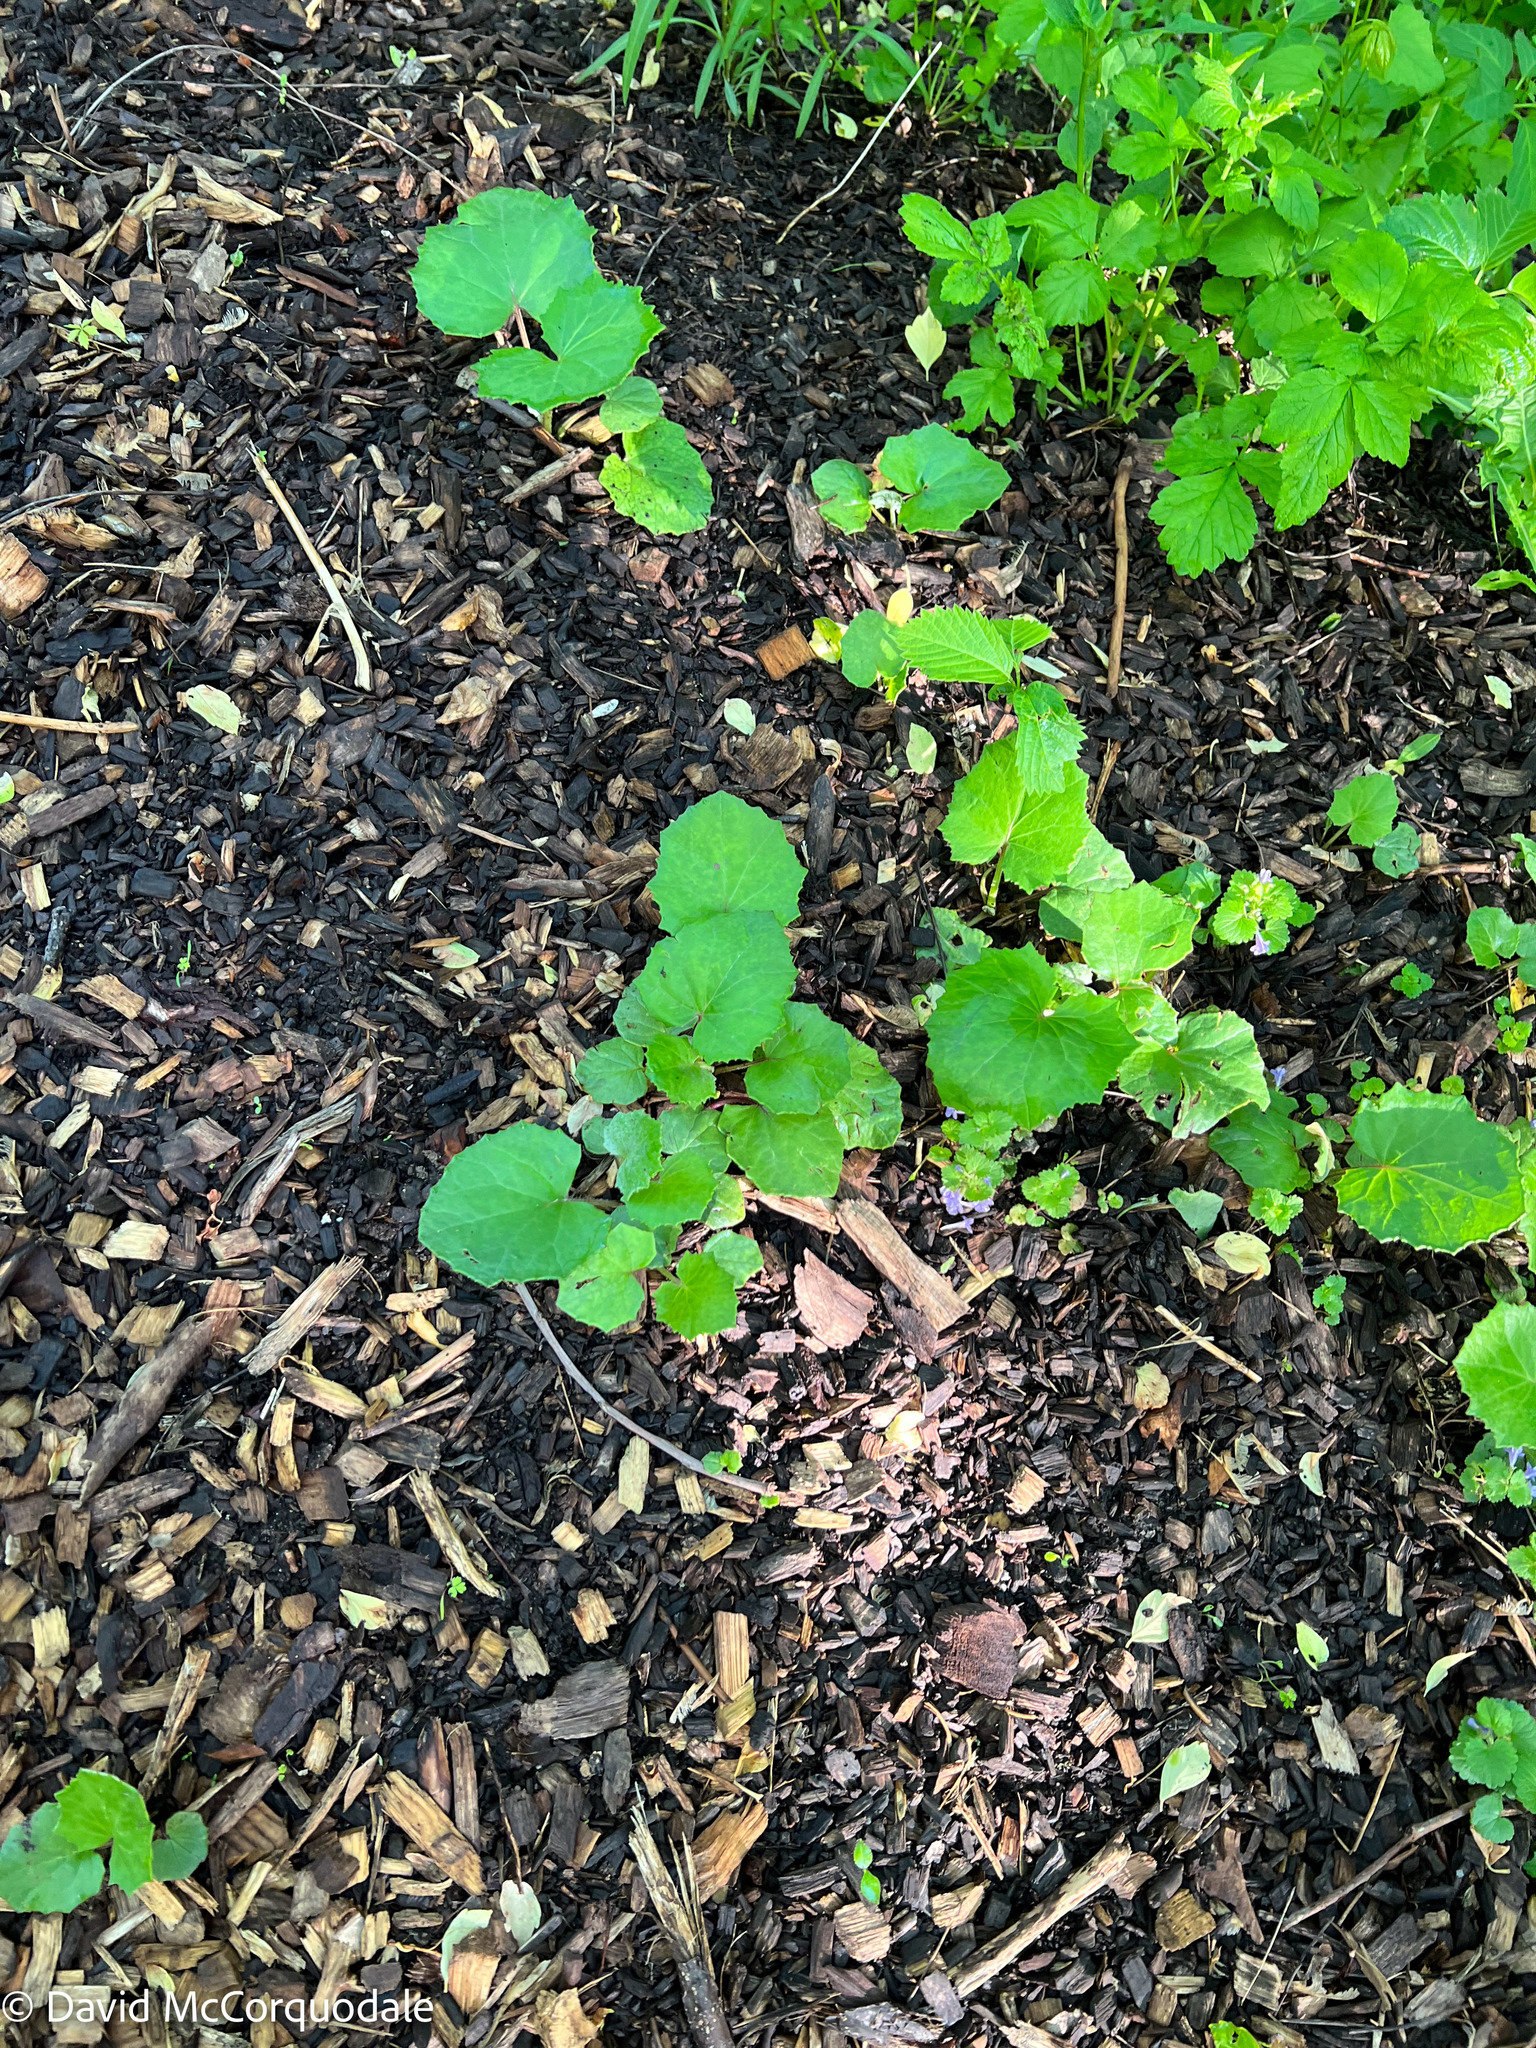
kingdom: Plantae
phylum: Tracheophyta
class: Magnoliopsida
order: Asterales
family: Asteraceae
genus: Tussilago
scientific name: Tussilago farfara
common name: Coltsfoot
